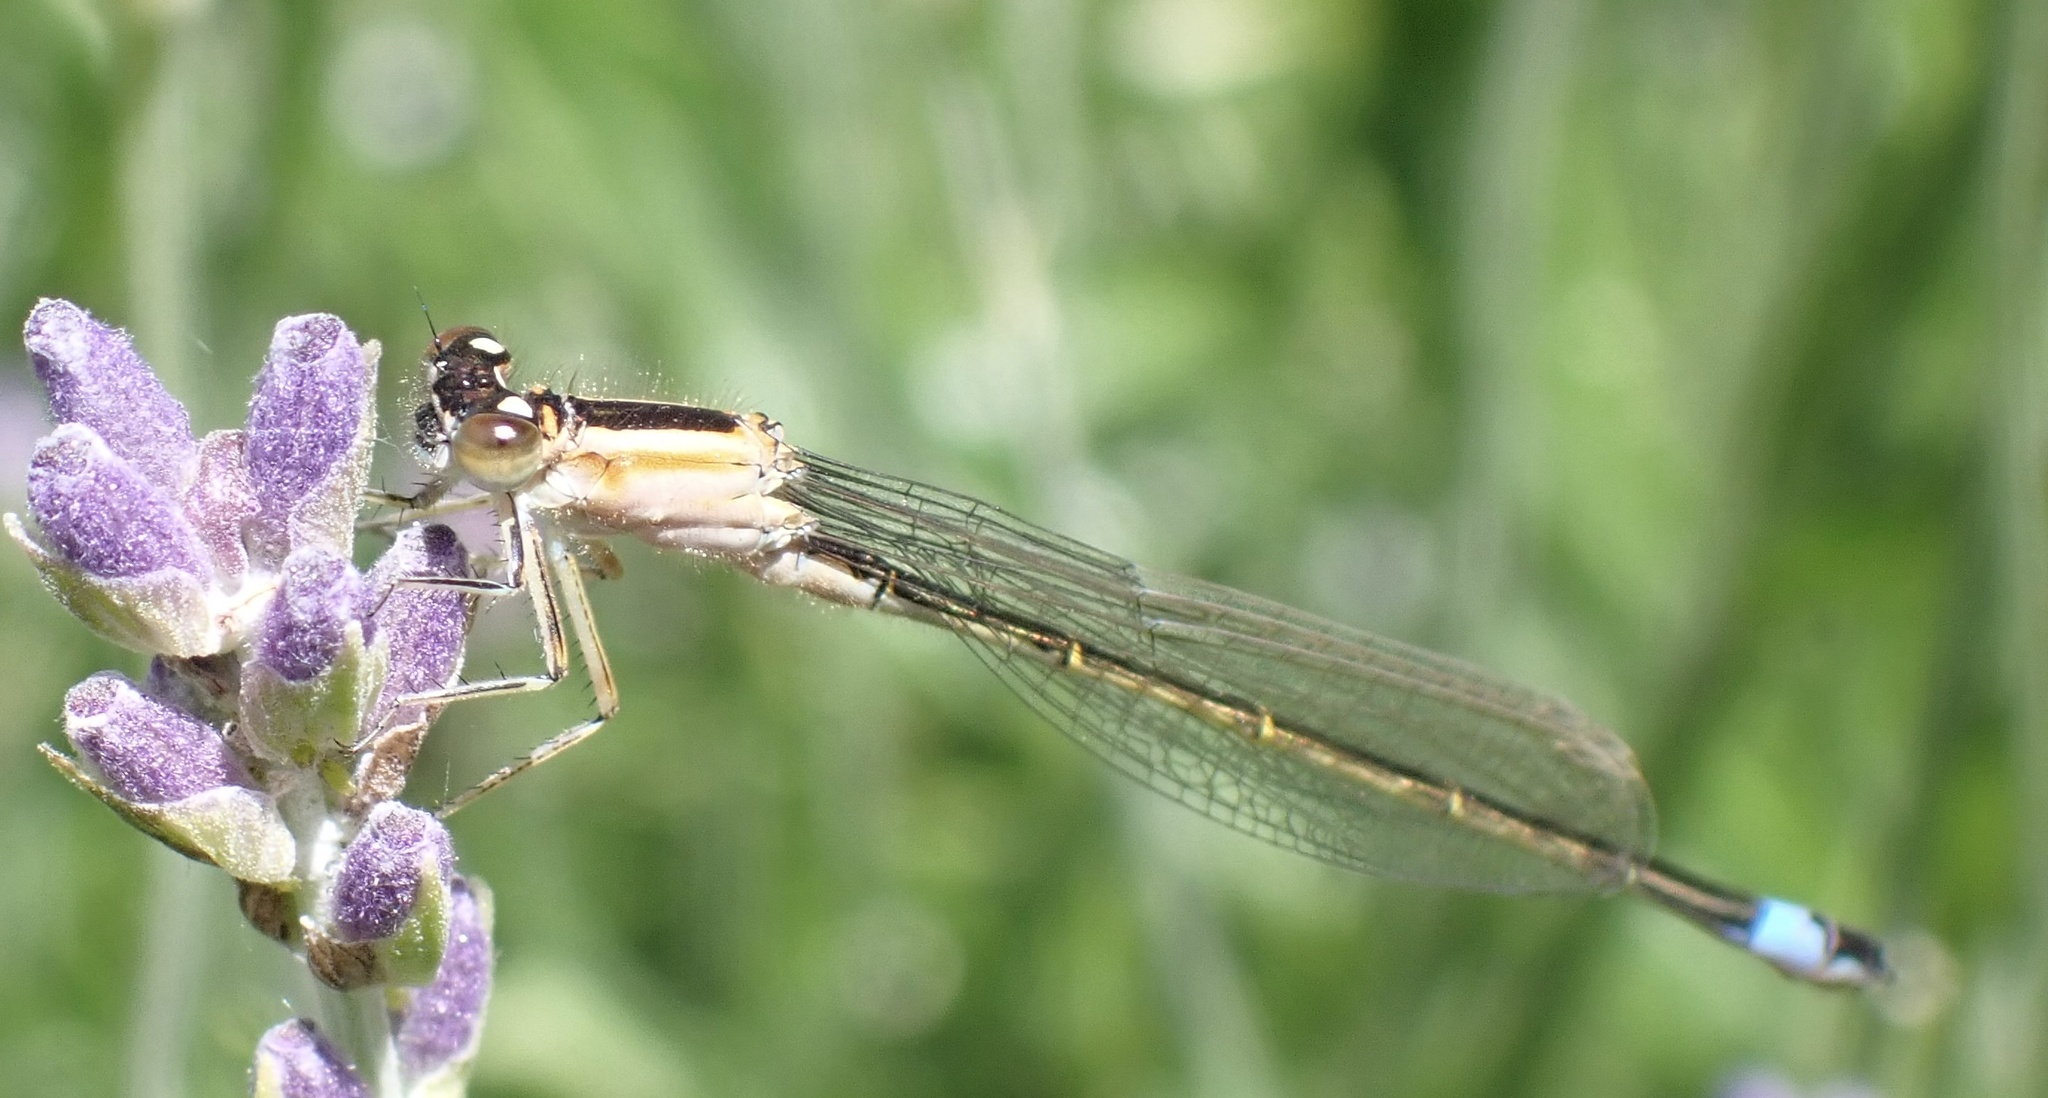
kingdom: Animalia
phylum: Arthropoda
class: Insecta
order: Odonata
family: Coenagrionidae
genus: Ischnura
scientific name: Ischnura elegans
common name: Blue-tailed damselfly
